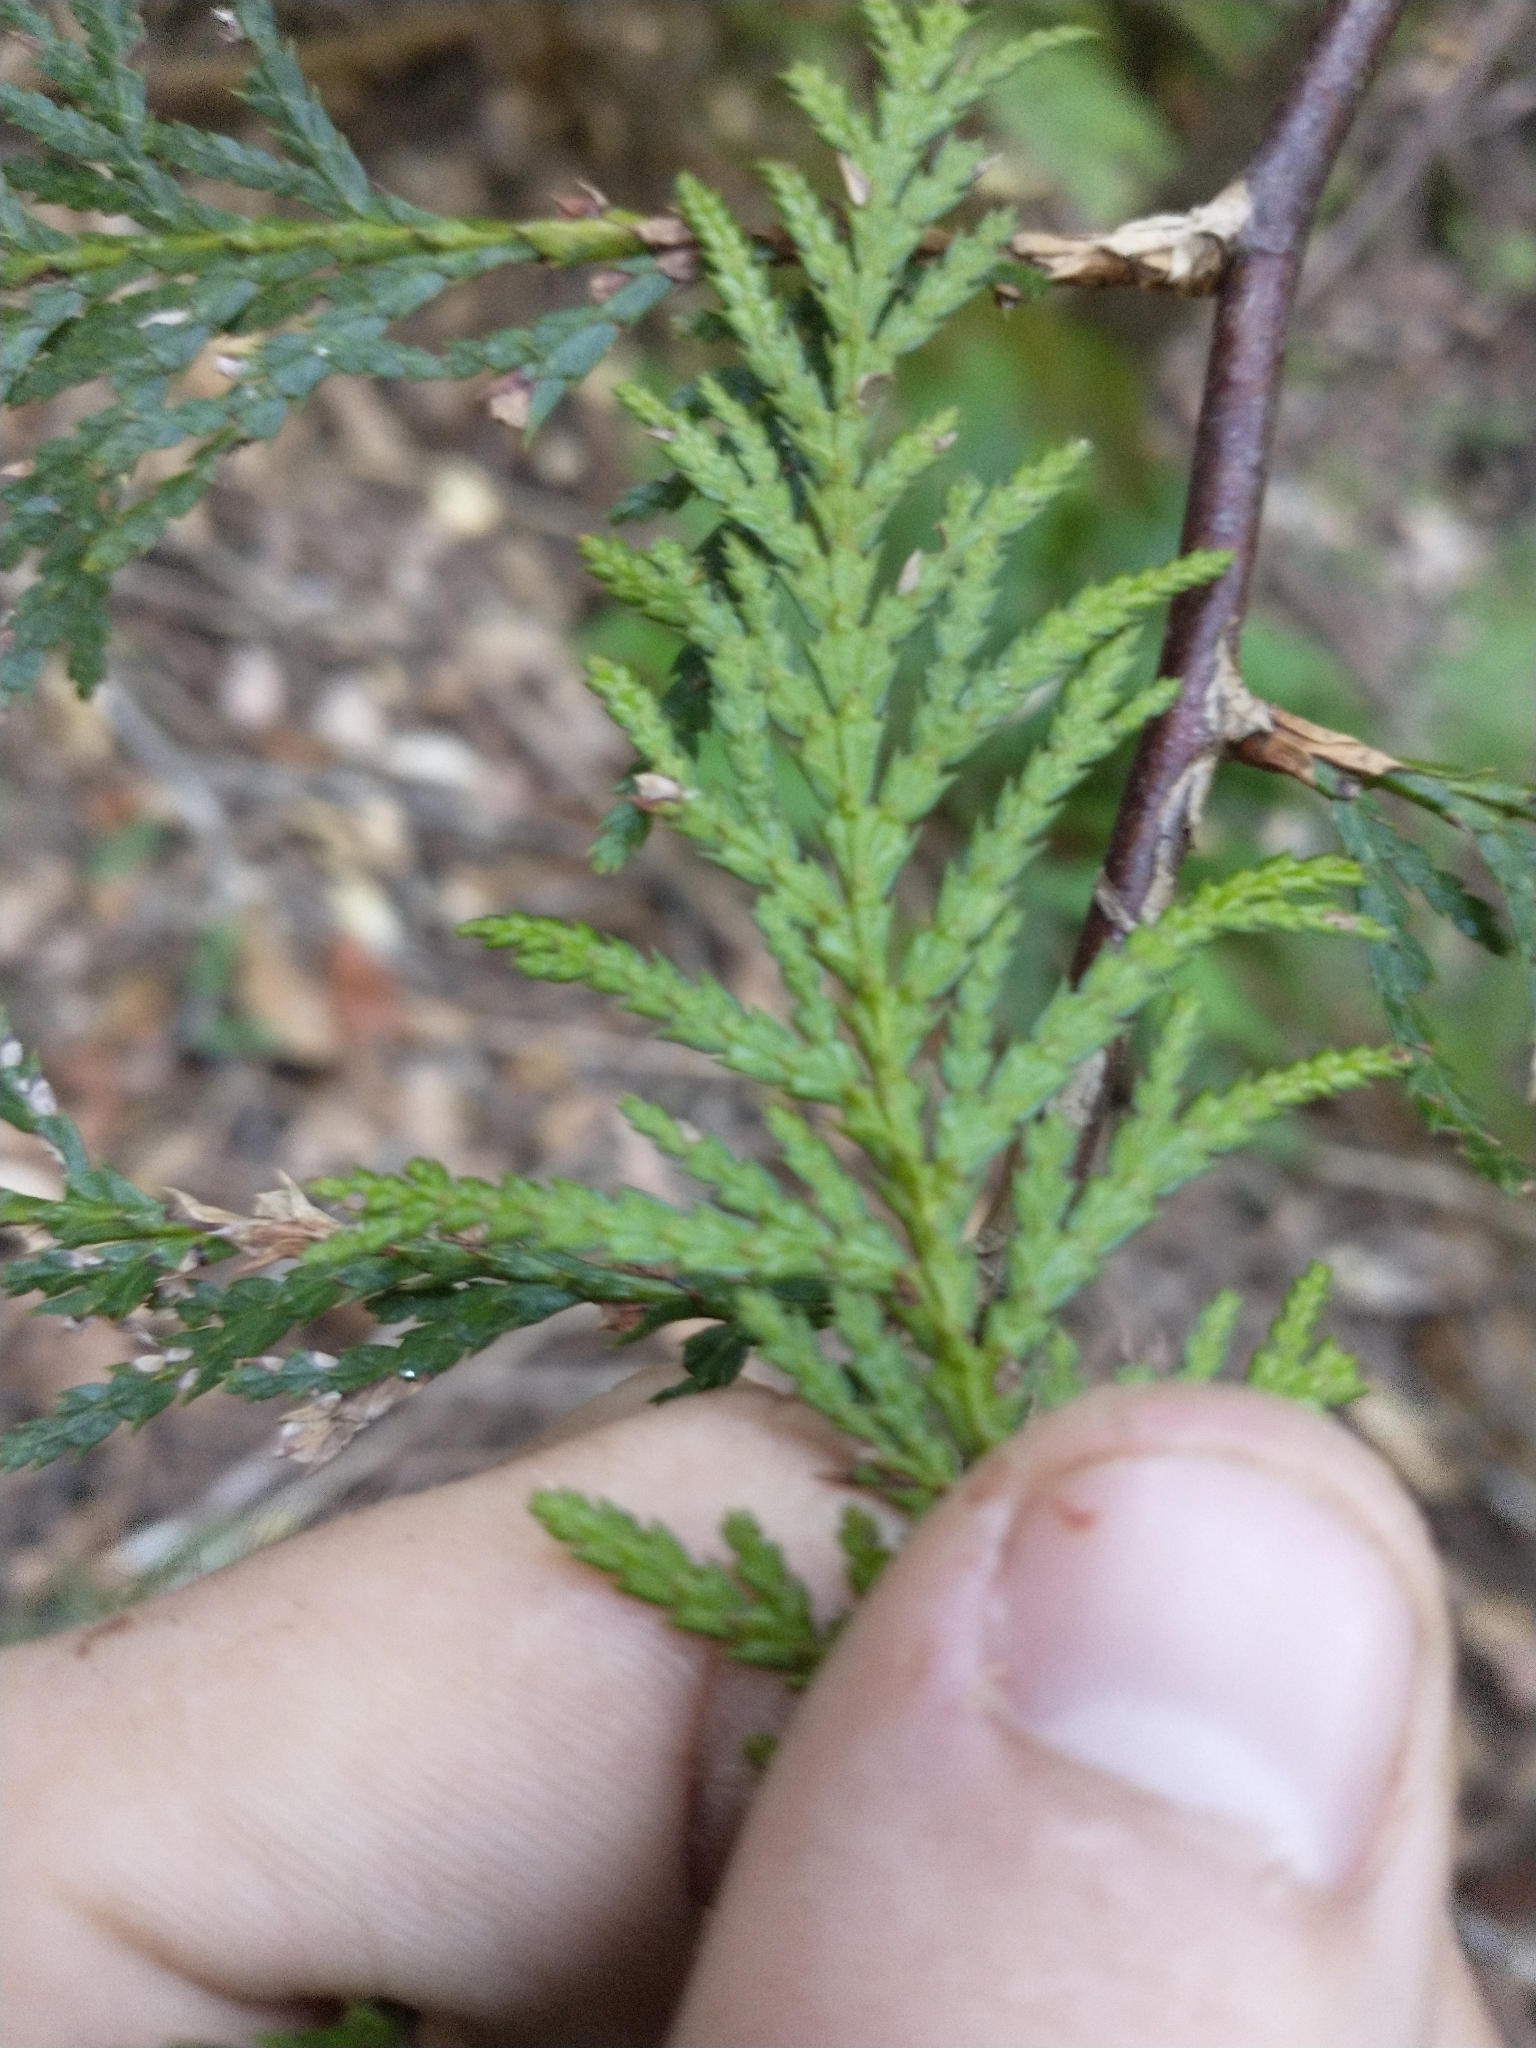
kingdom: Plantae
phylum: Tracheophyta
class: Pinopsida
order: Pinales
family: Cupressaceae
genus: Thuja
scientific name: Thuja plicata
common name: Western red-cedar
